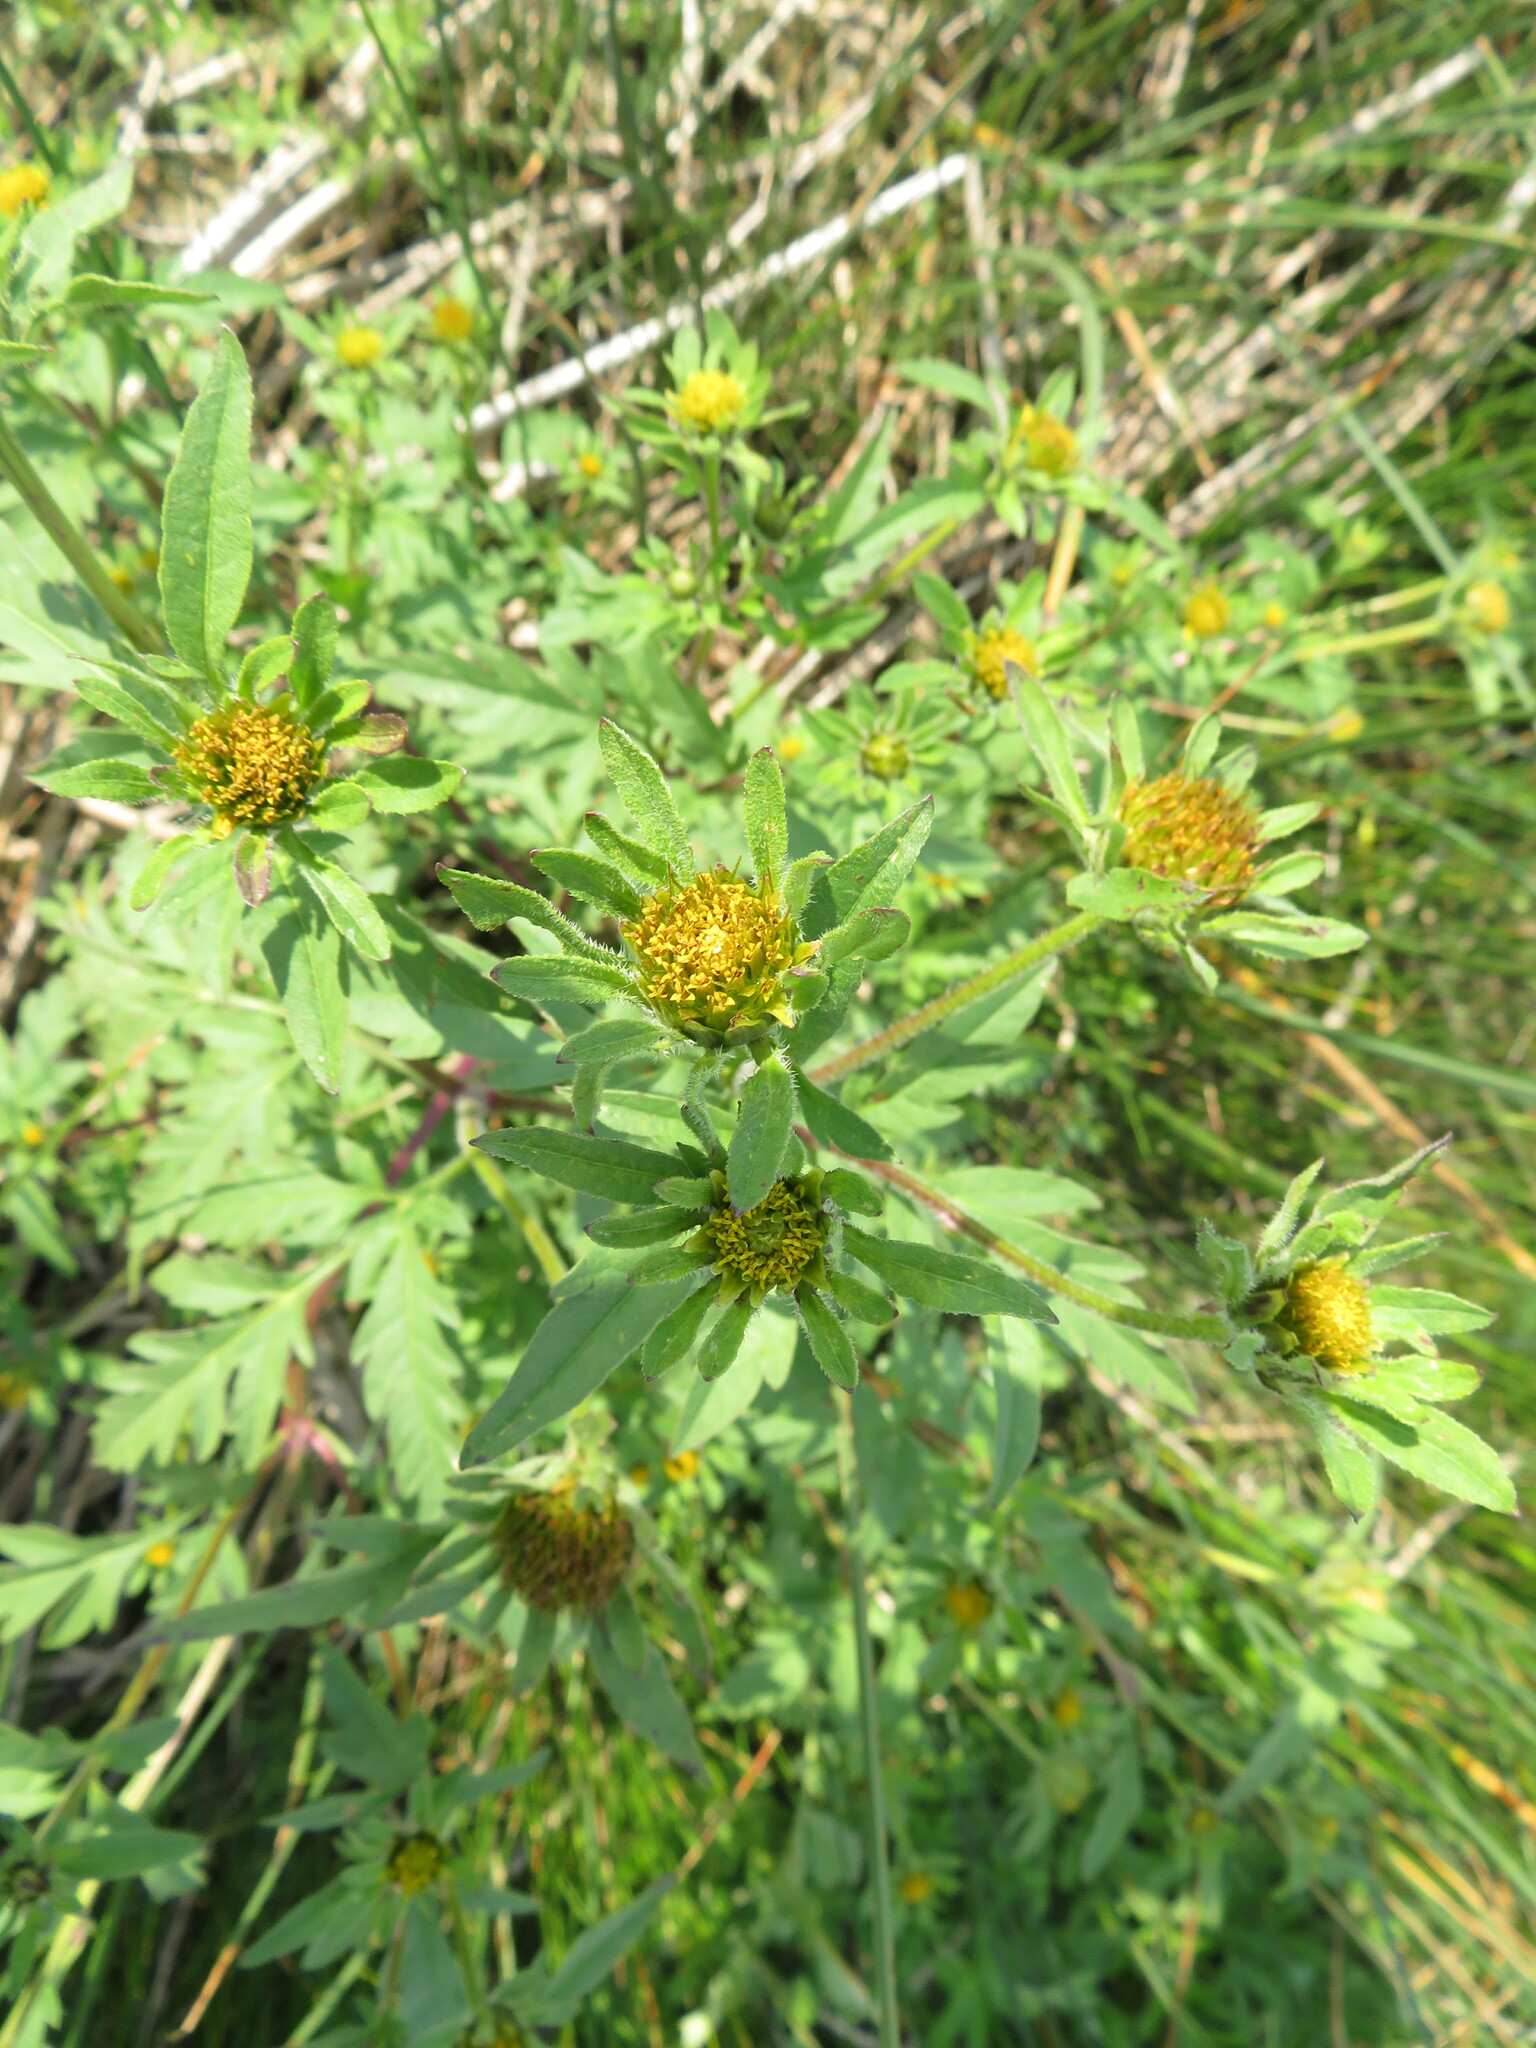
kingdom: Plantae
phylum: Tracheophyta
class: Magnoliopsida
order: Asterales
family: Asteraceae
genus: Bidens
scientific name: Bidens vulgata
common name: Tall beggarticks
